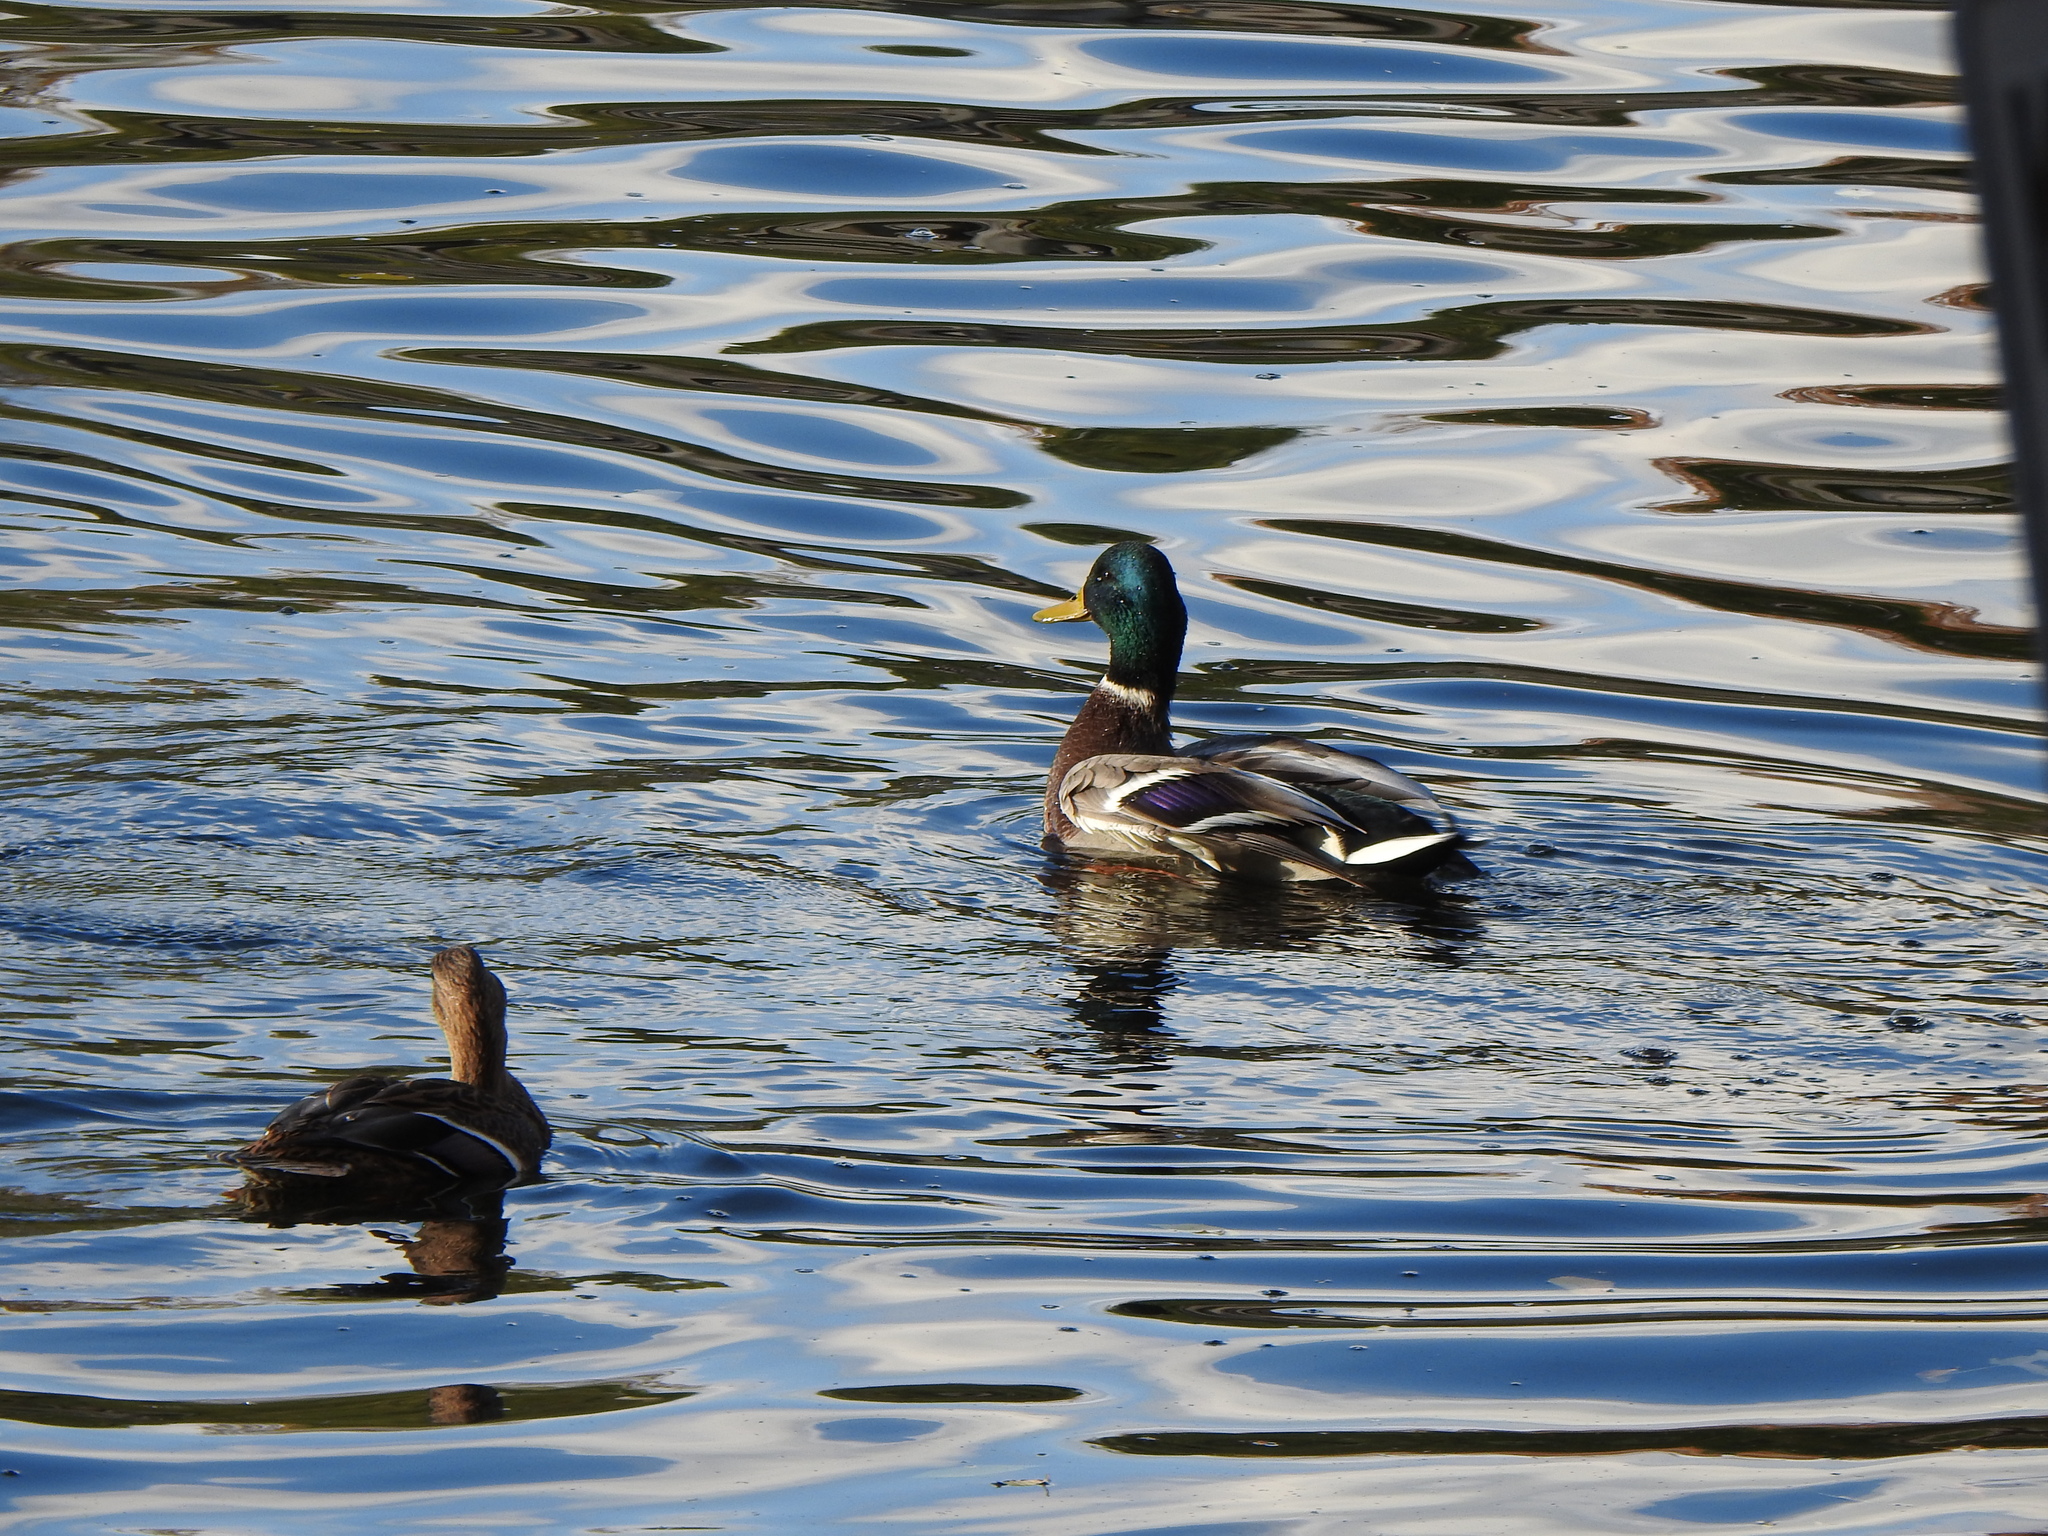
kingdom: Animalia
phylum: Chordata
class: Aves
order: Anseriformes
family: Anatidae
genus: Anas
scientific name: Anas platyrhynchos
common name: Mallard
